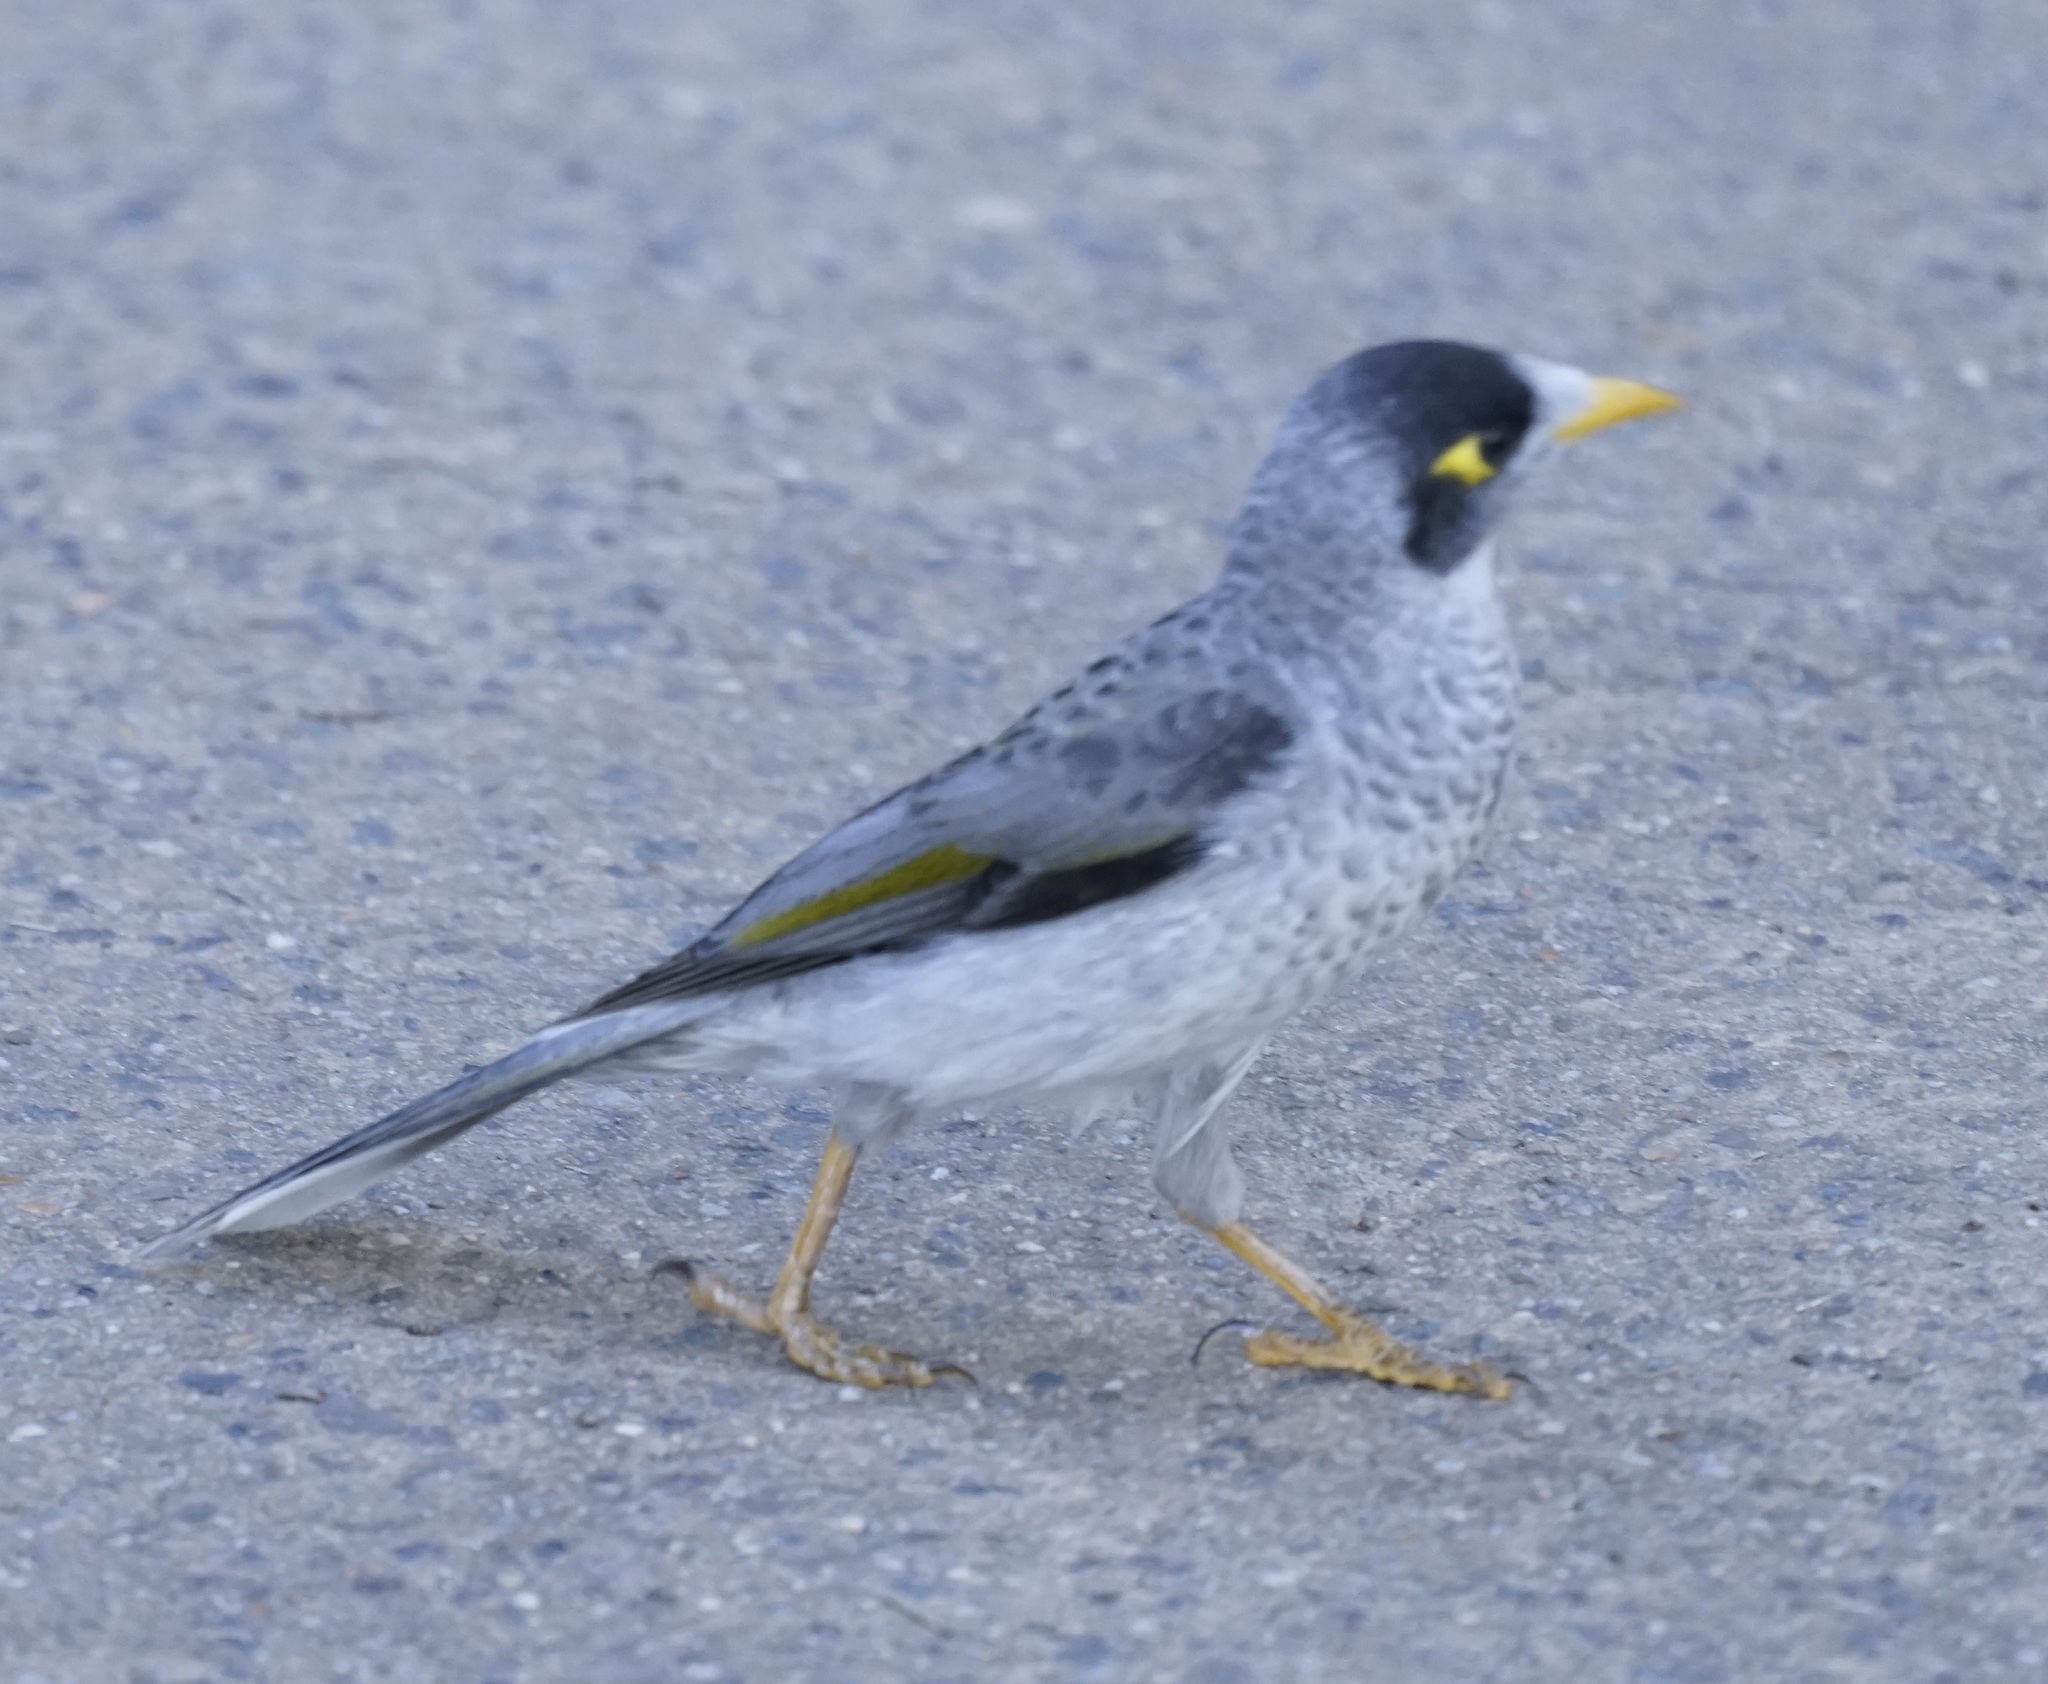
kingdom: Animalia
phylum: Chordata
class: Aves
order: Passeriformes
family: Meliphagidae
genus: Manorina
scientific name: Manorina melanocephala
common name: Noisy miner
